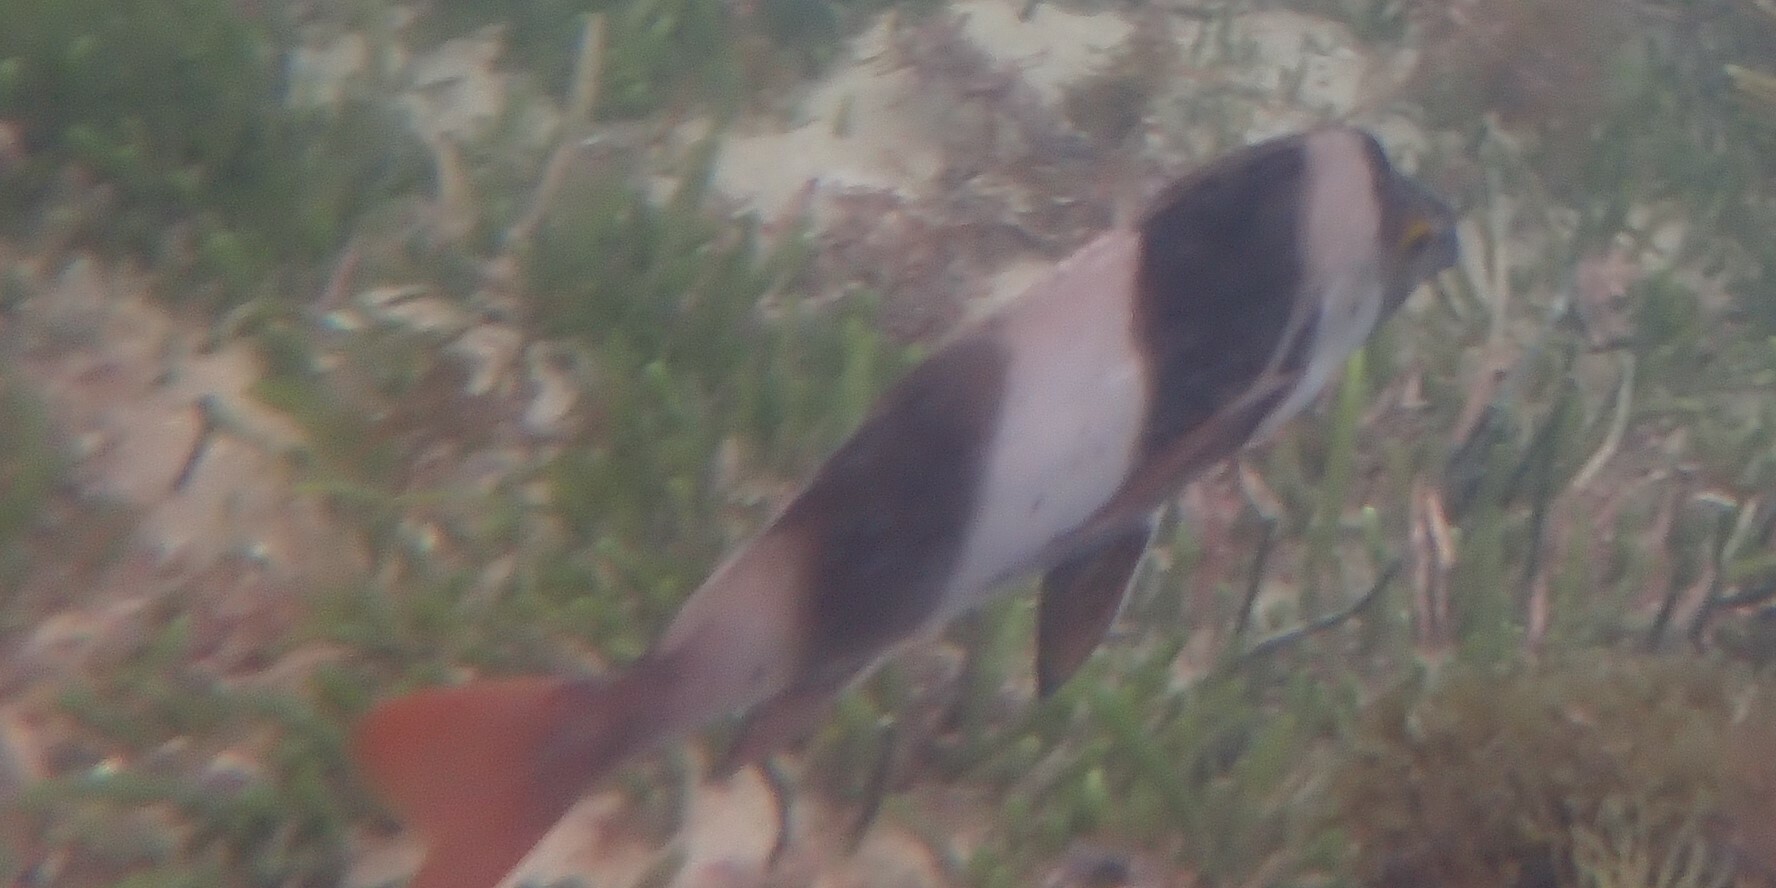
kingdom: Animalia
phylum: Chordata
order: Perciformes
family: Latridae
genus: Pseudogoniistius
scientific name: Pseudogoniistius nigripes
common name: Black-striped morwong
